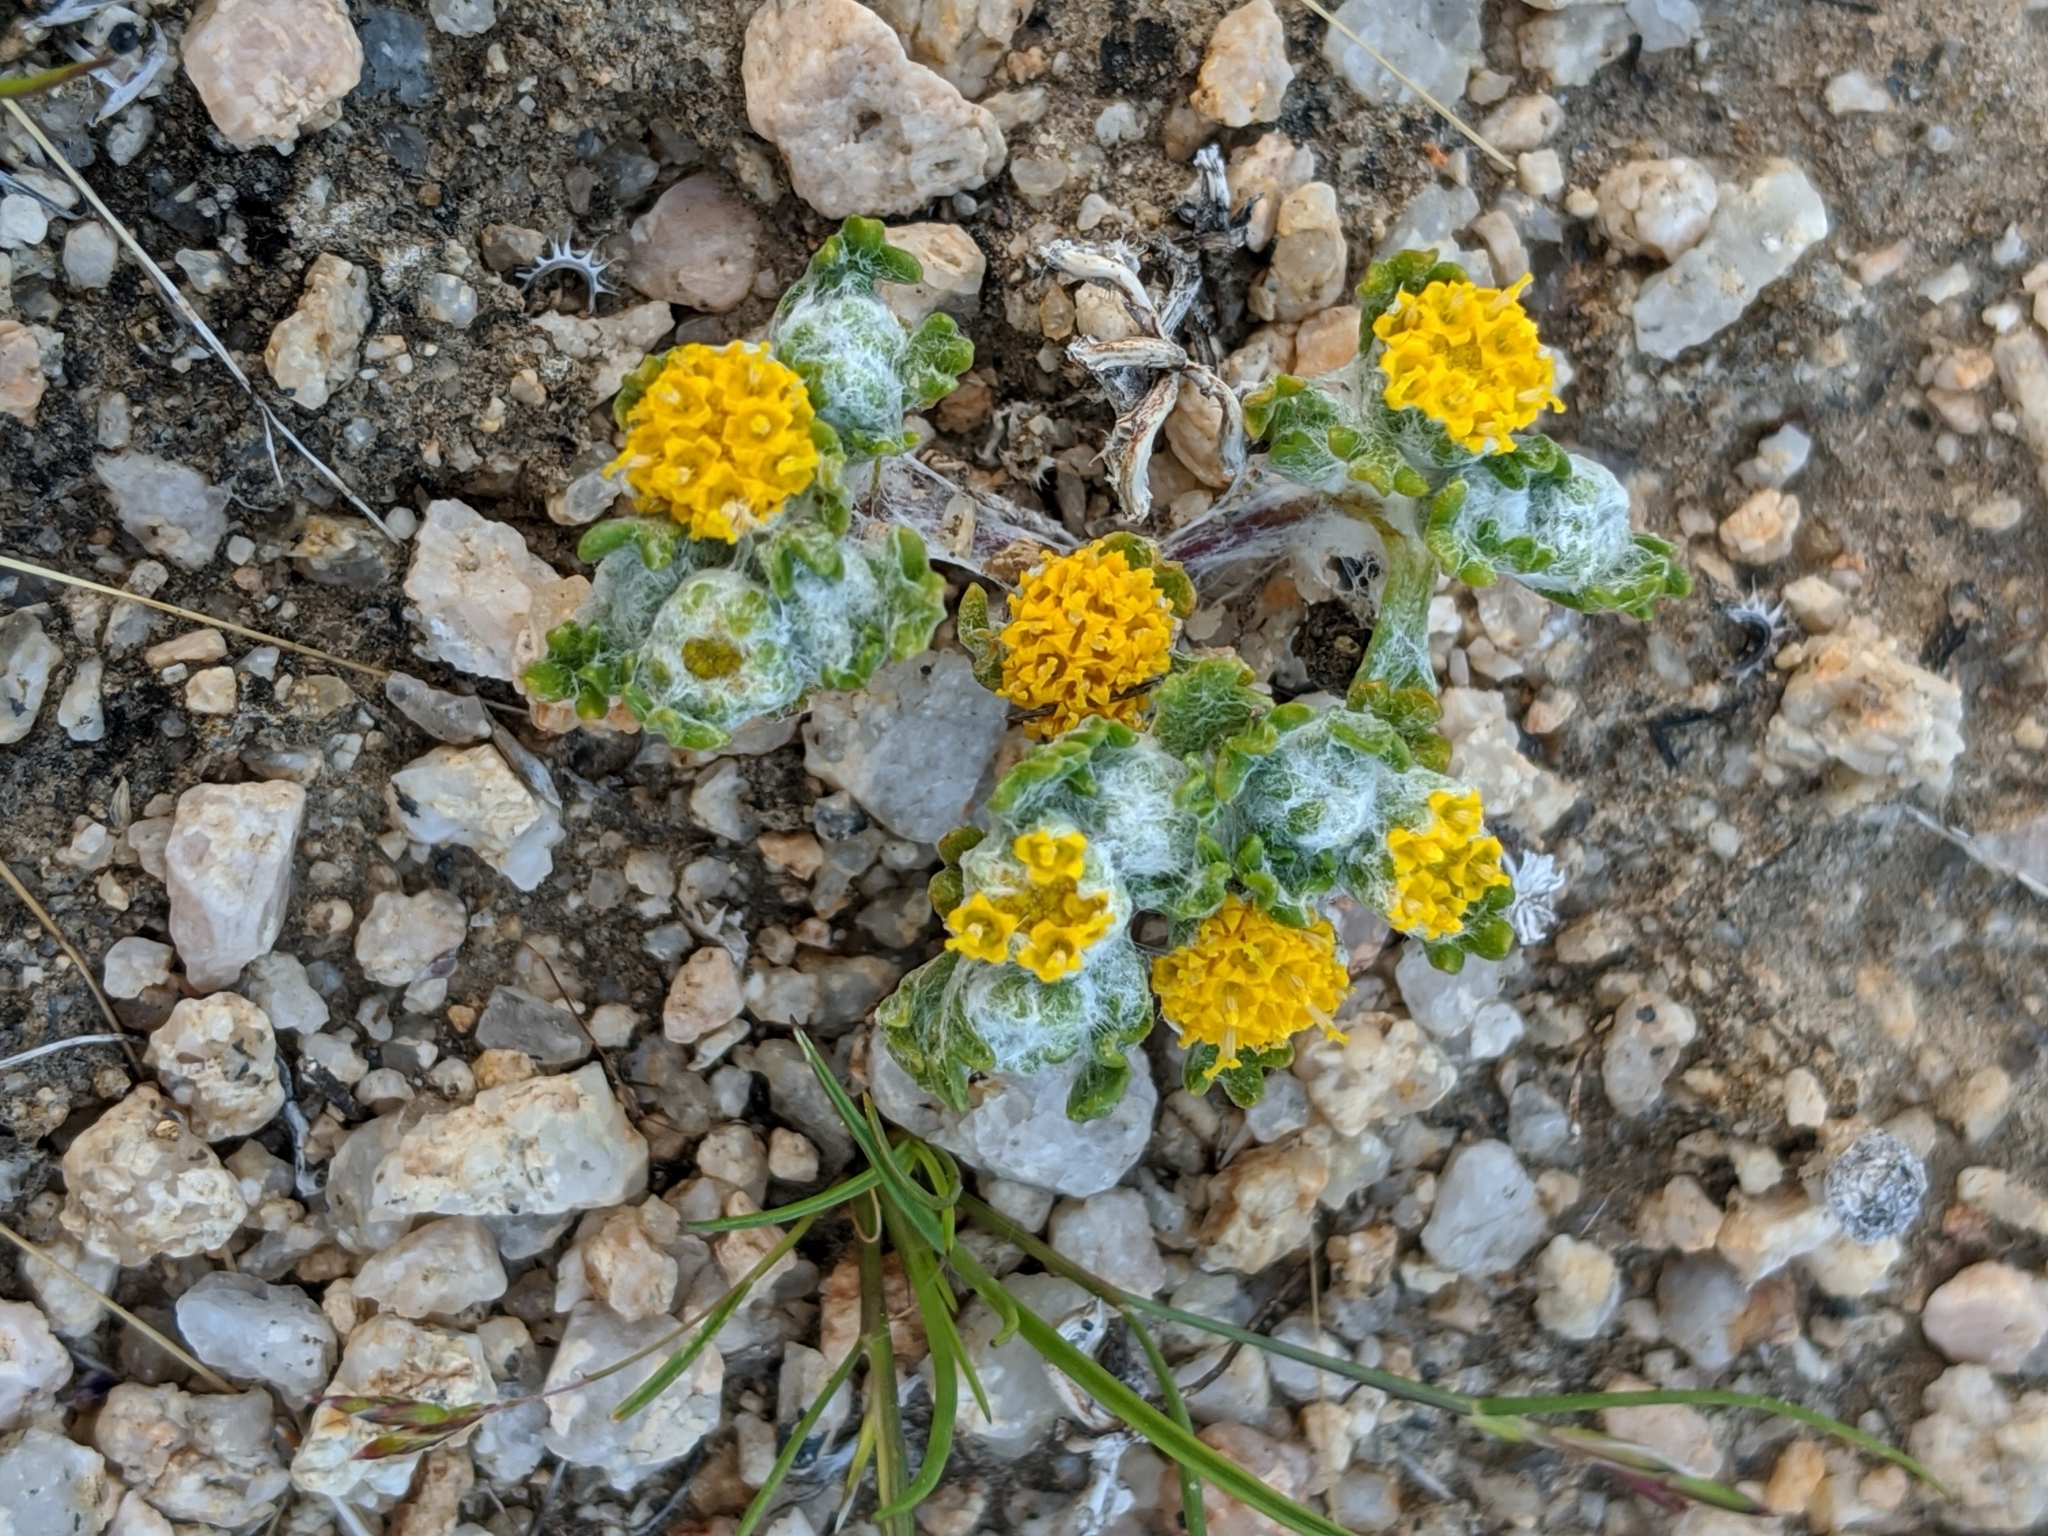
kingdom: Plantae
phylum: Tracheophyta
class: Magnoliopsida
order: Asterales
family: Asteraceae
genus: Eriophyllum
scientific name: Eriophyllum pringlei
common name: Pringle's woolly-sunflower
